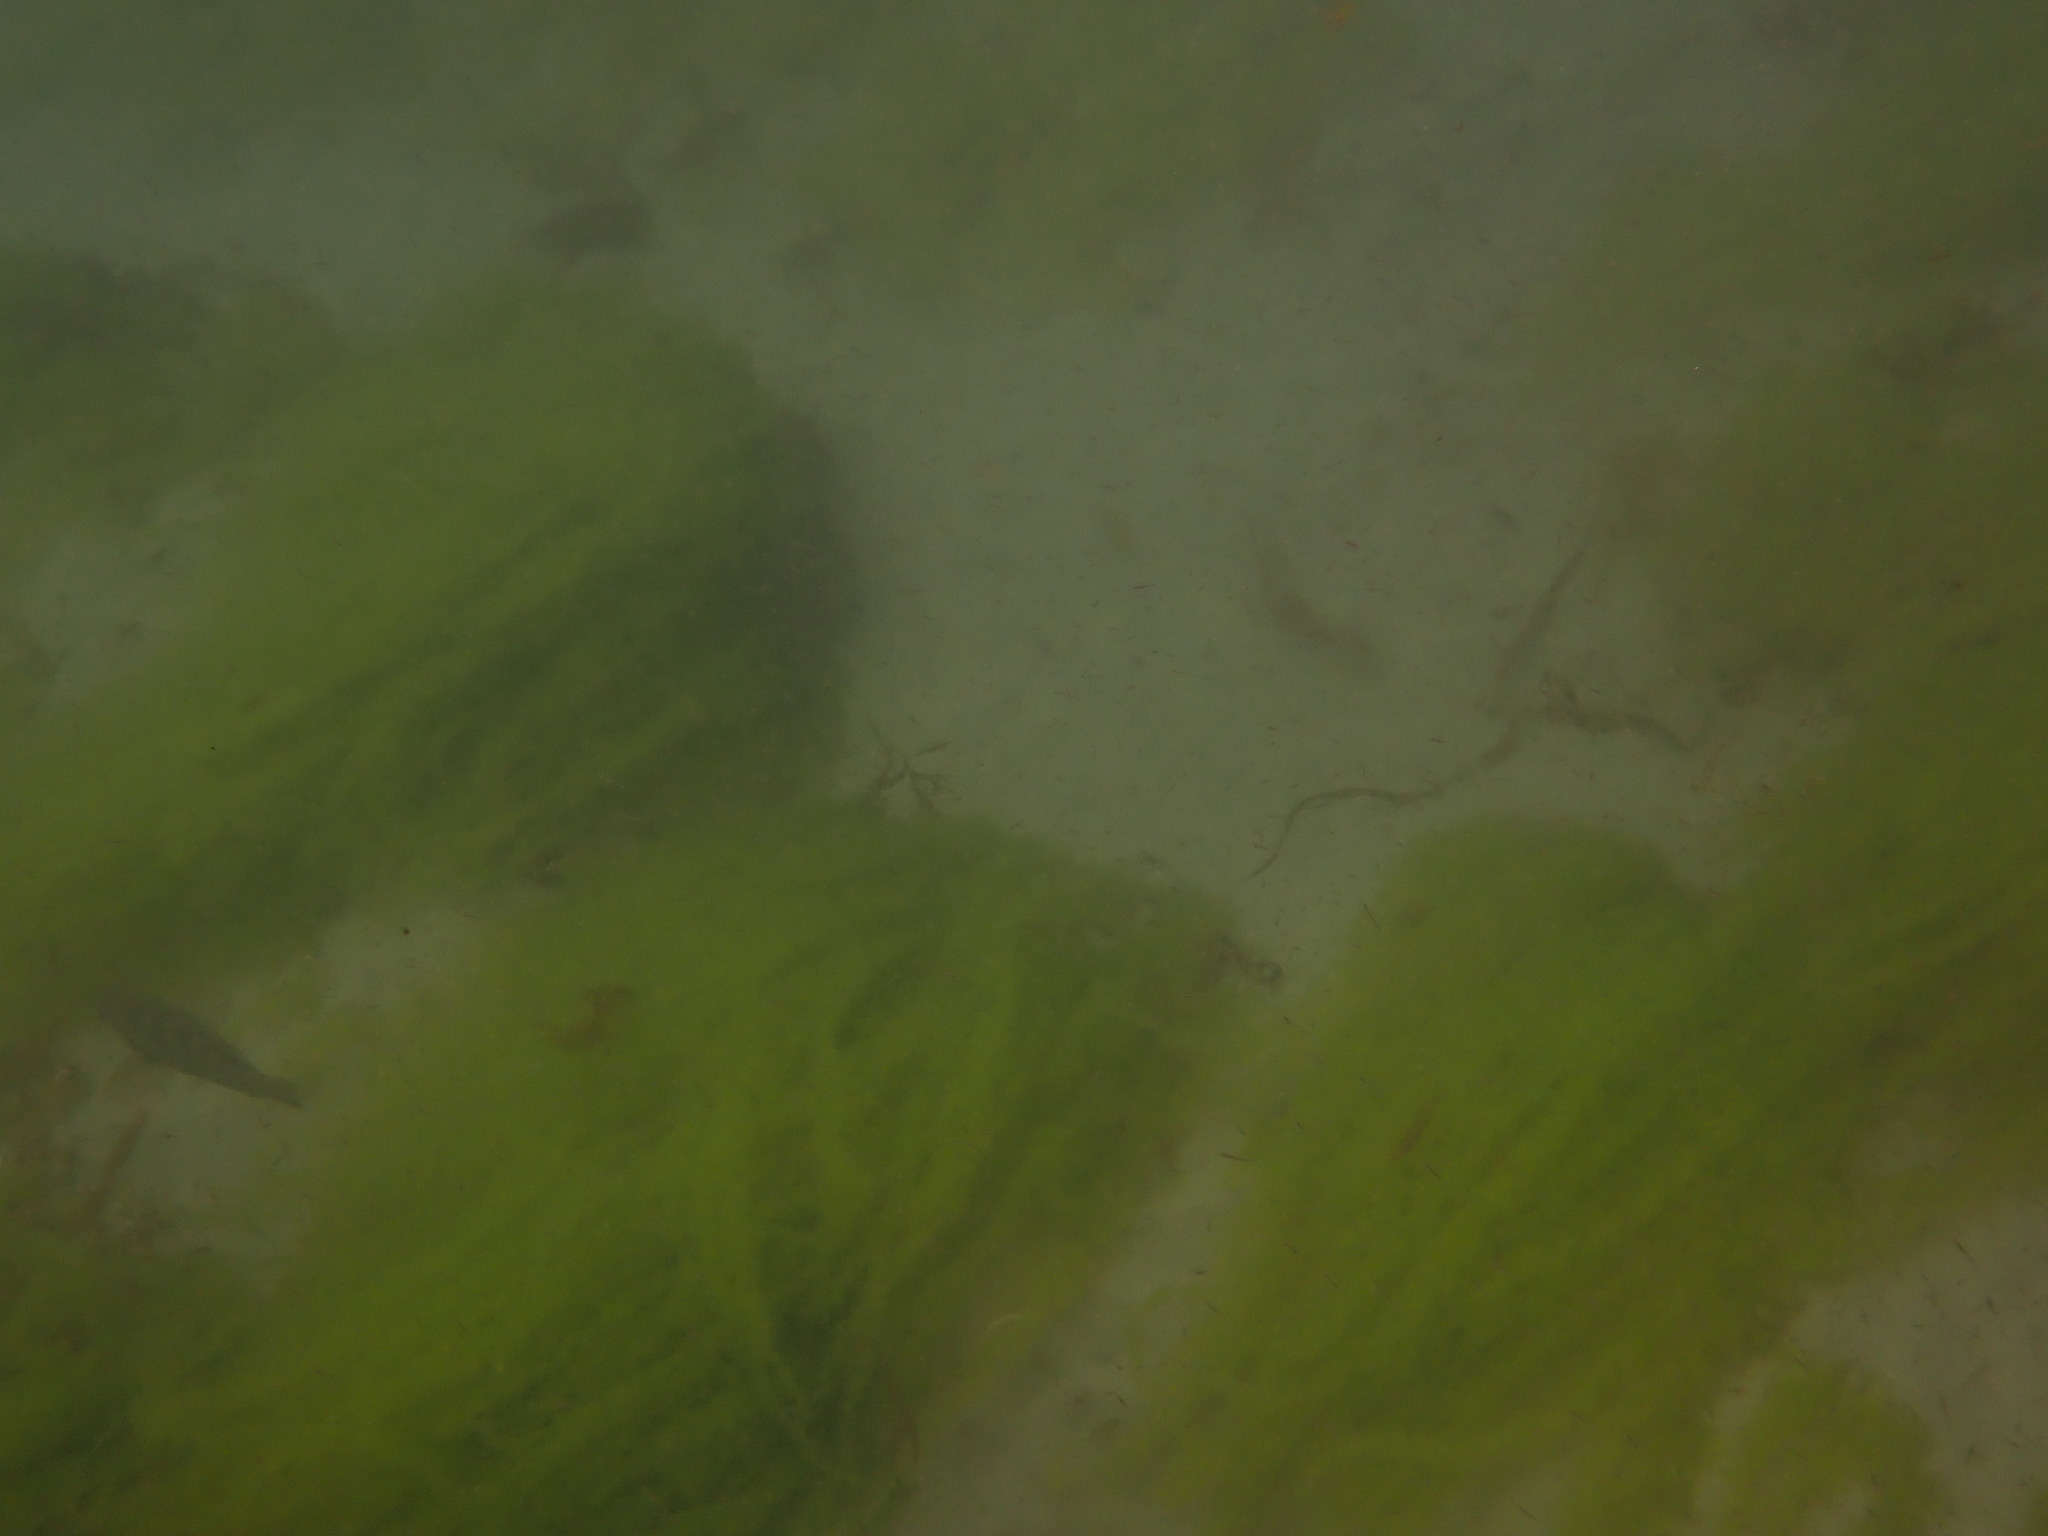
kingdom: Animalia
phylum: Chordata
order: Perciformes
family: Labridae
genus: Notolabrus
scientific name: Notolabrus fucicola
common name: Banded parrotfish
